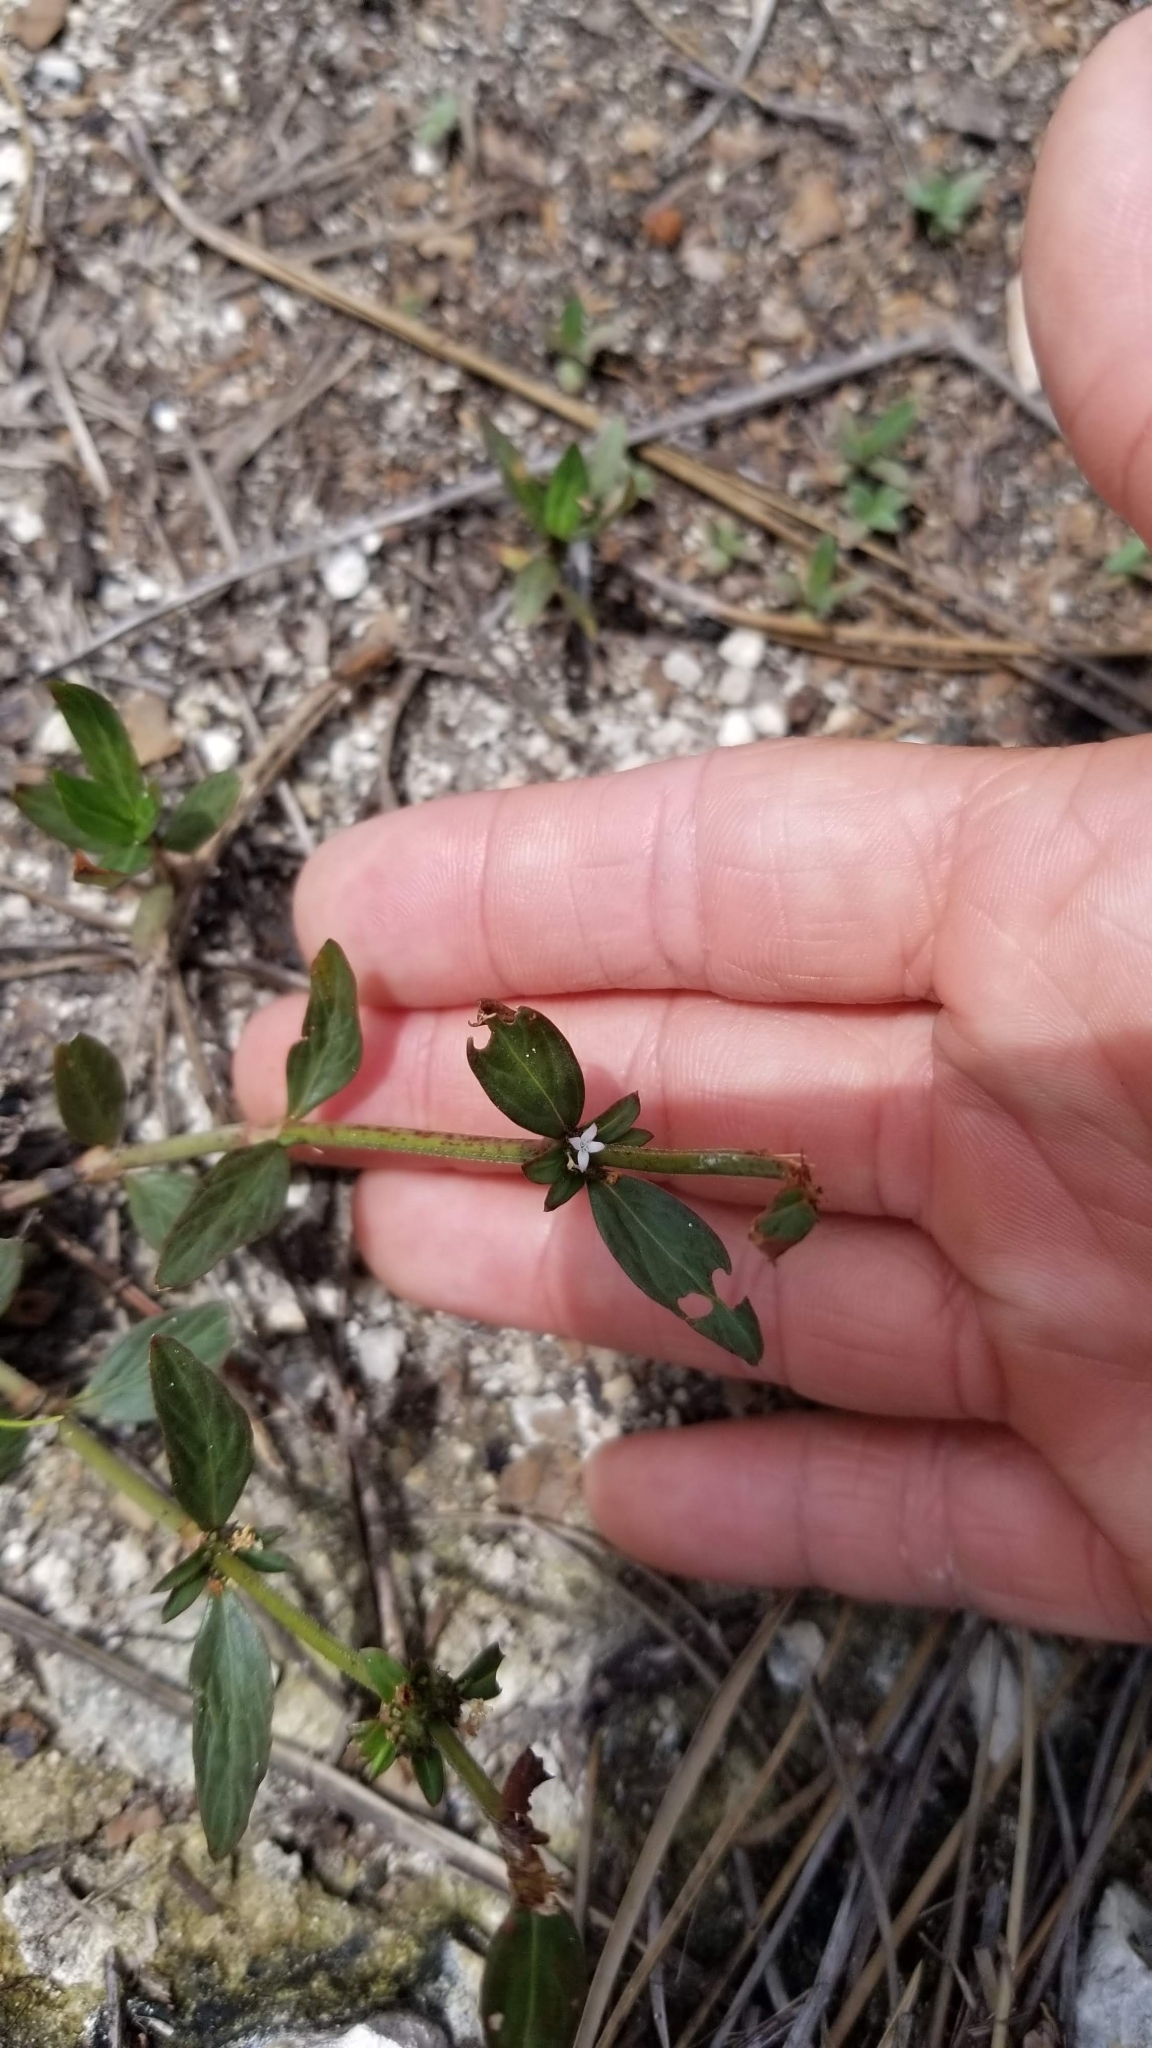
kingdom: Plantae
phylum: Tracheophyta
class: Magnoliopsida
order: Gentianales
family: Rubiaceae
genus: Spermacoce
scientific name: Spermacoce remota
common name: Woodland false buttonweed
